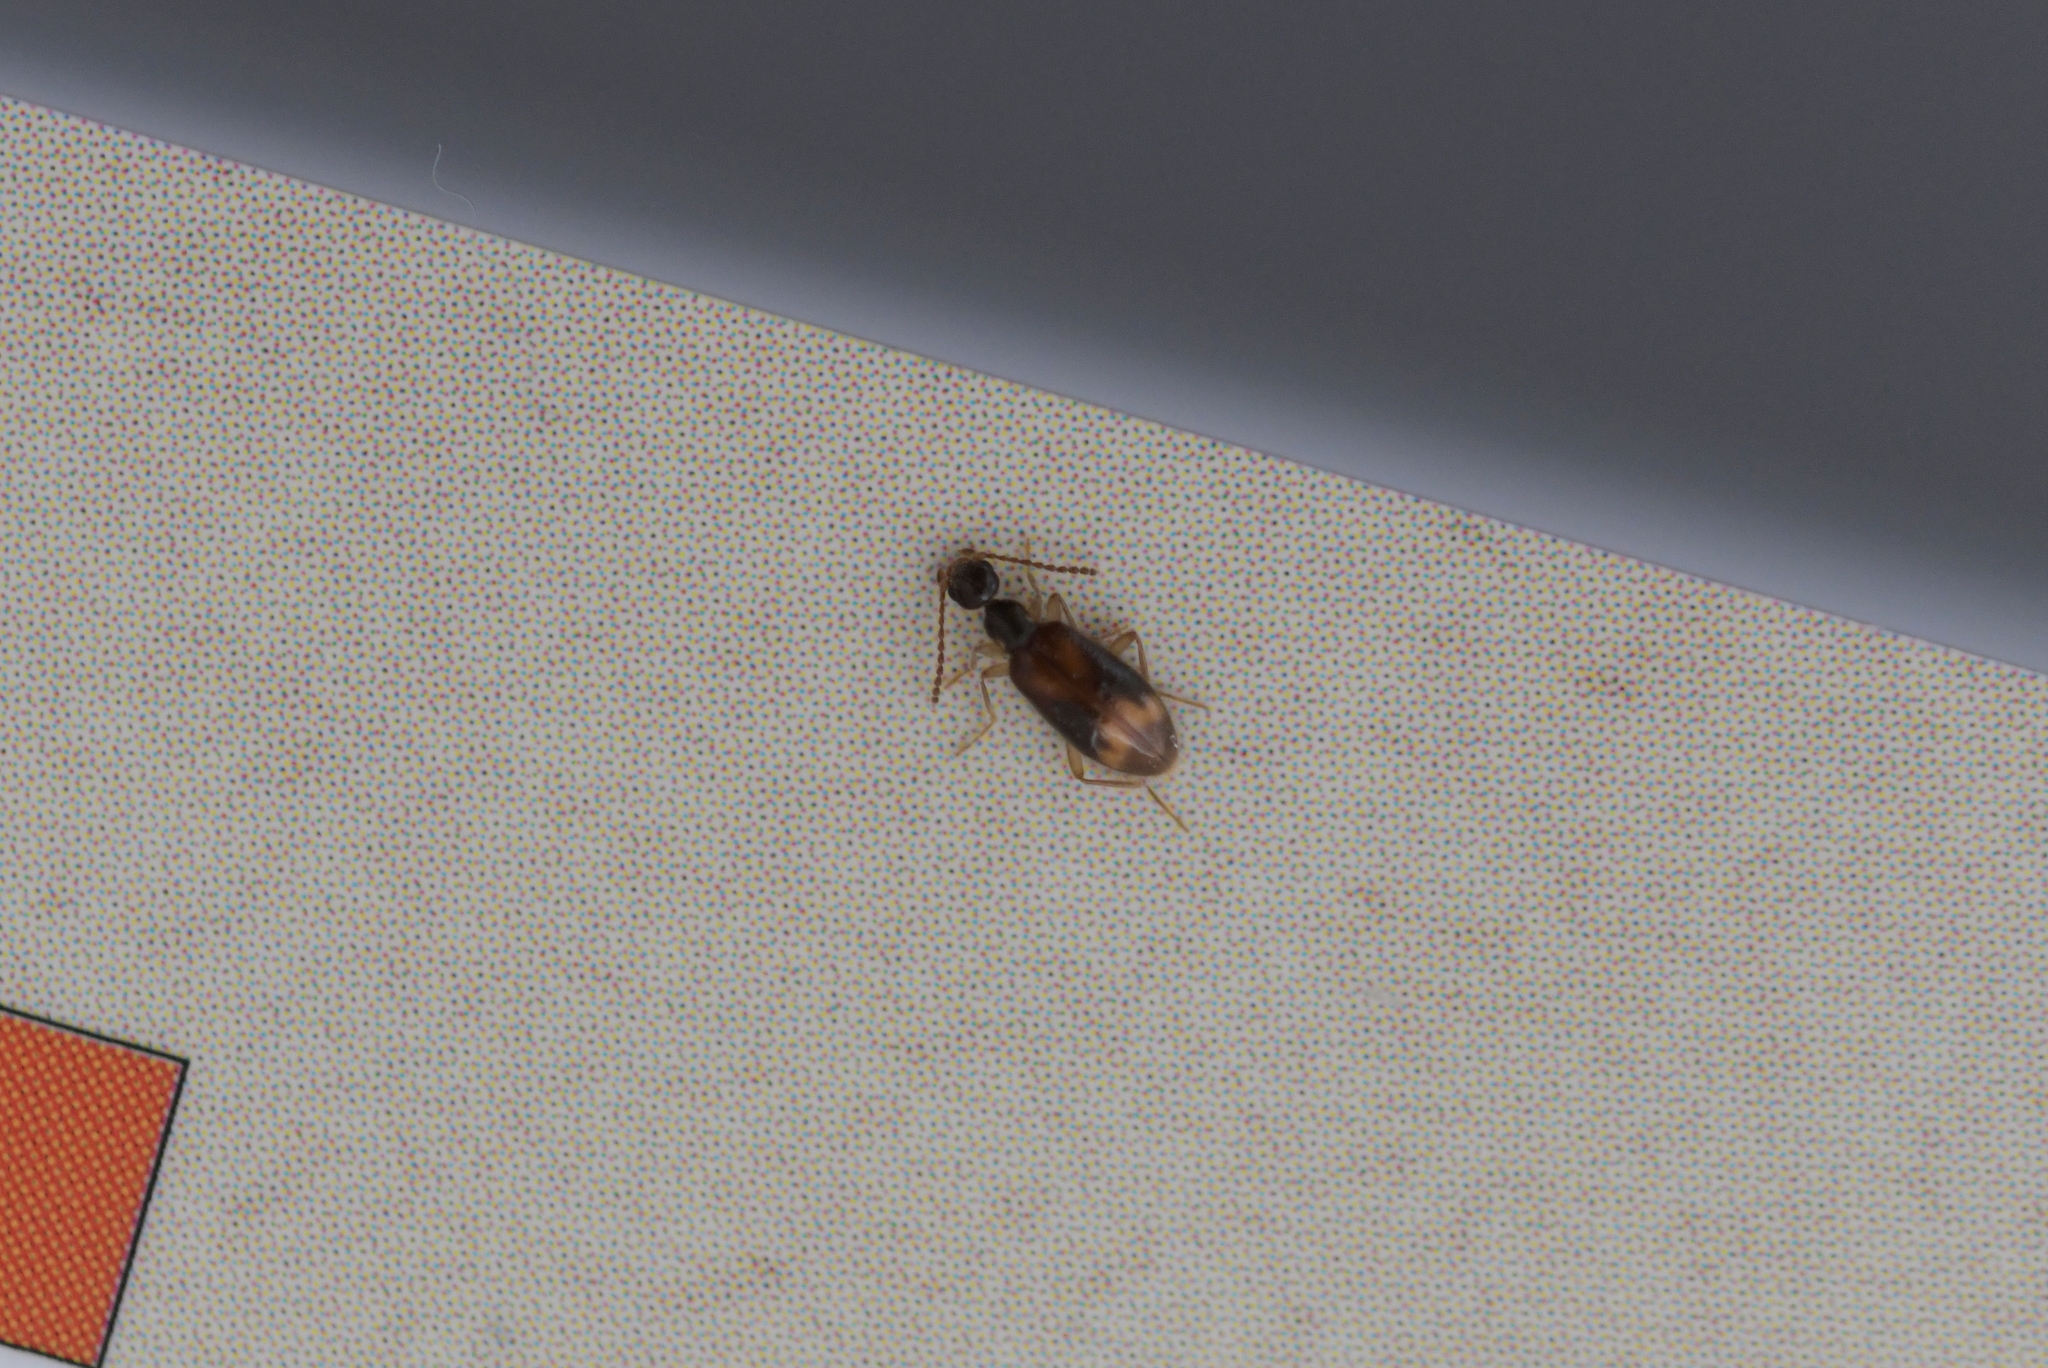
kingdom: Animalia
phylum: Arthropoda
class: Insecta
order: Coleoptera
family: Anthicidae
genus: Sapintus
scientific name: Sapintus pellucidipes
